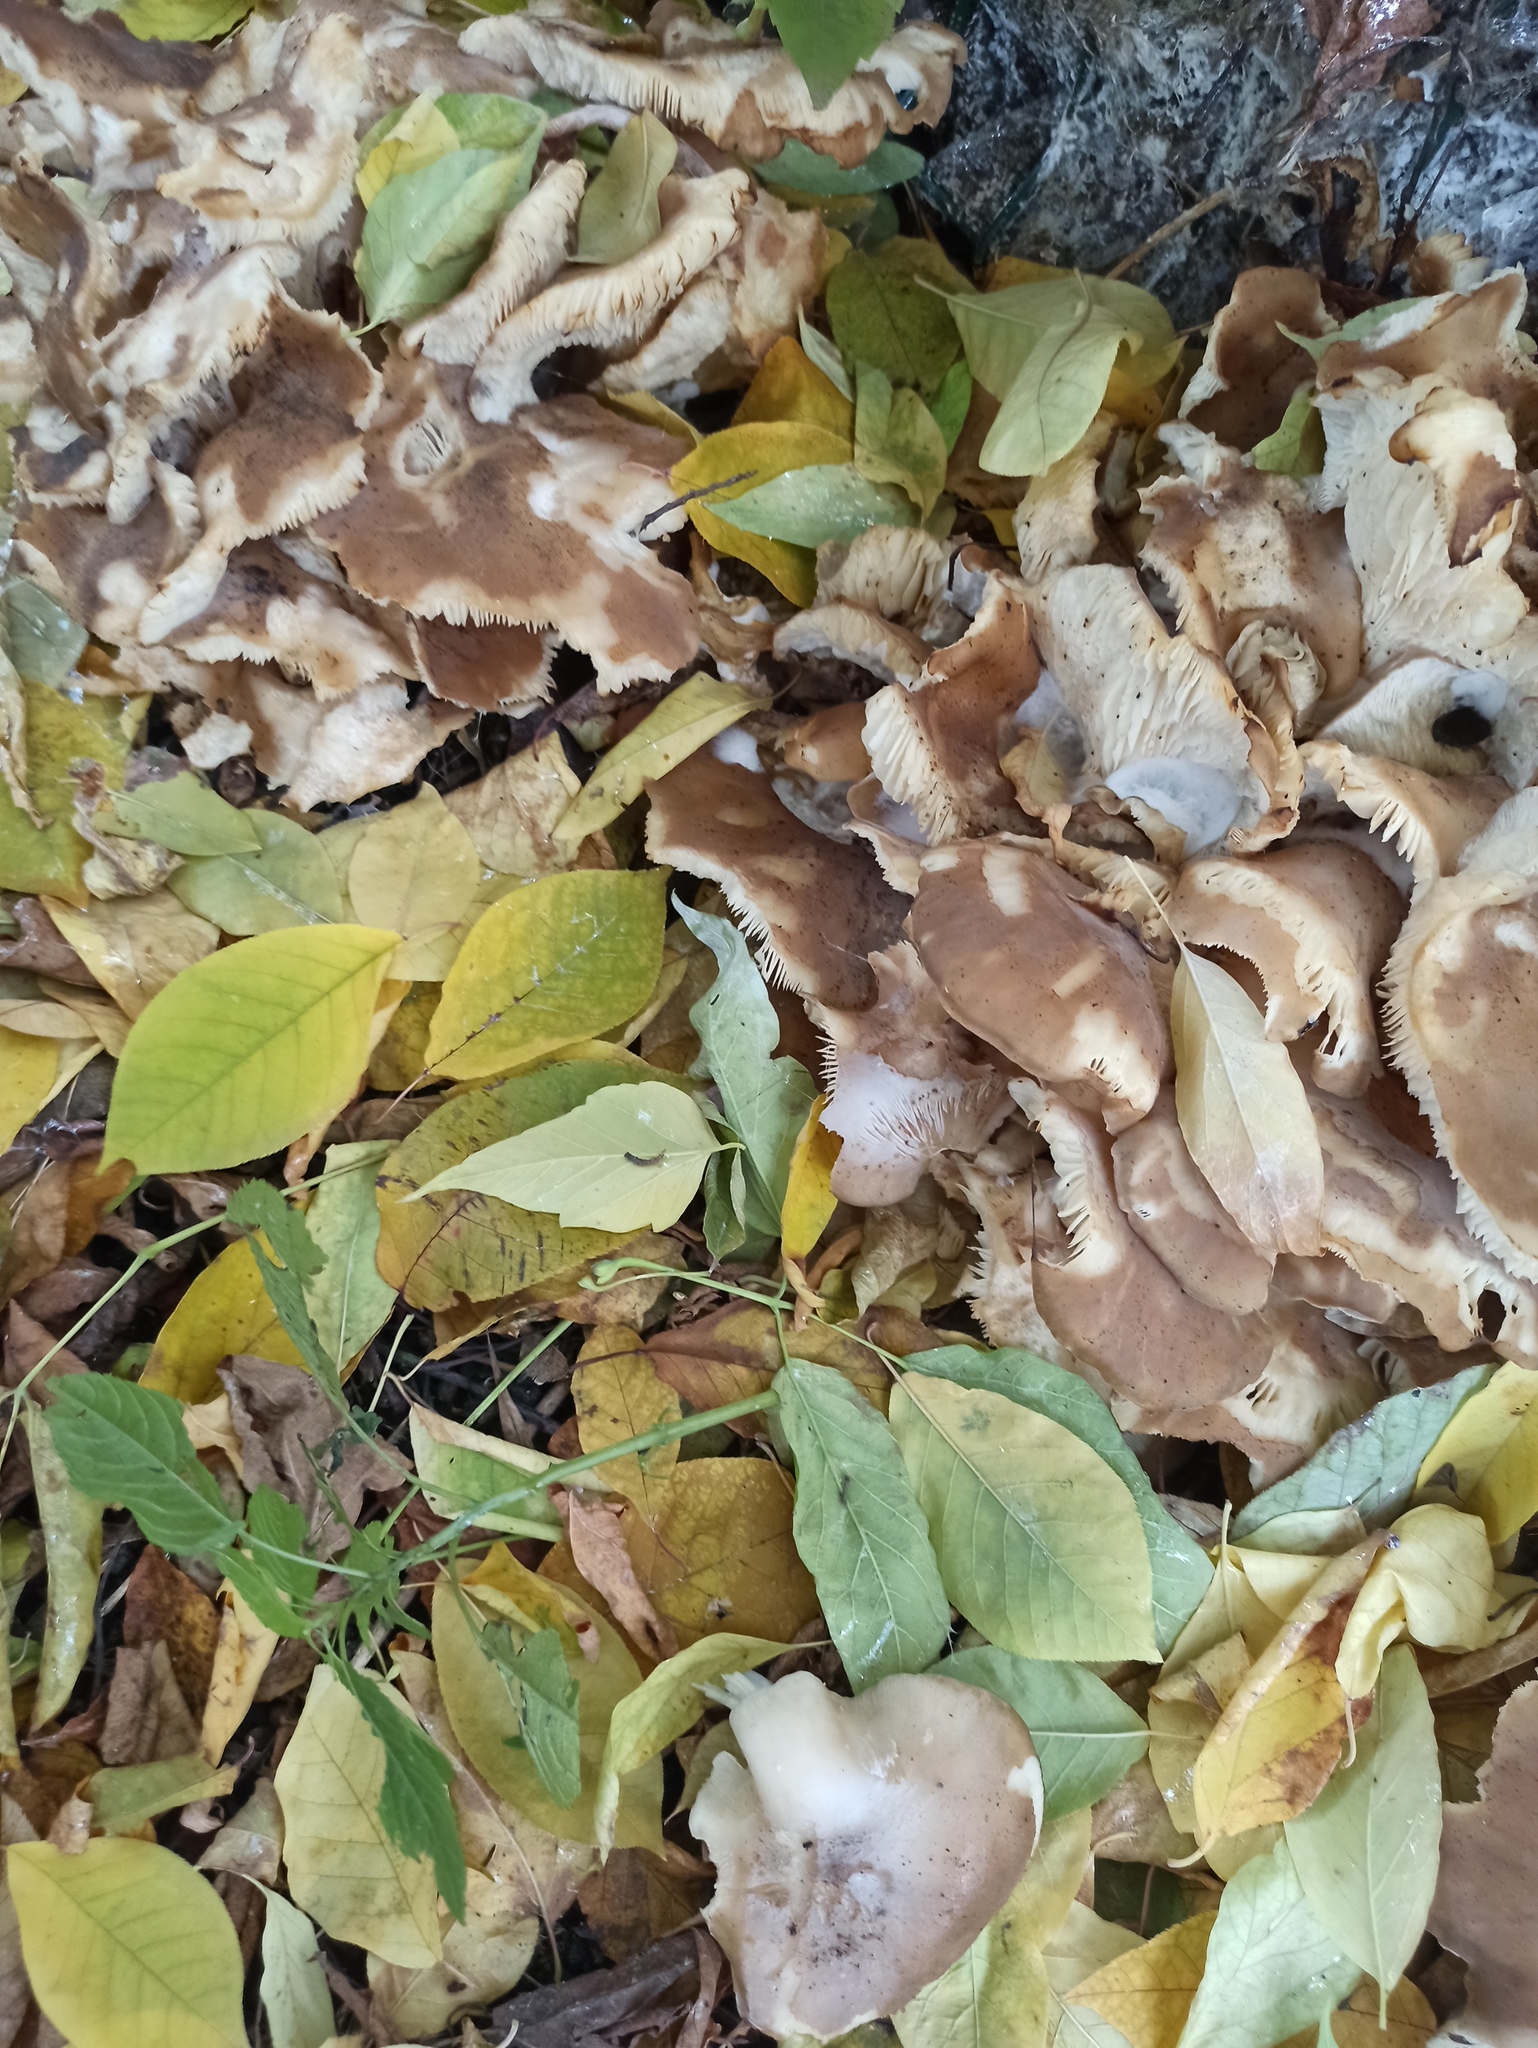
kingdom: Fungi
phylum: Basidiomycota
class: Agaricomycetes
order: Agaricales
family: Lyophyllaceae
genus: Lyophyllum
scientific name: Lyophyllum decastes
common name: Clustered domecap
